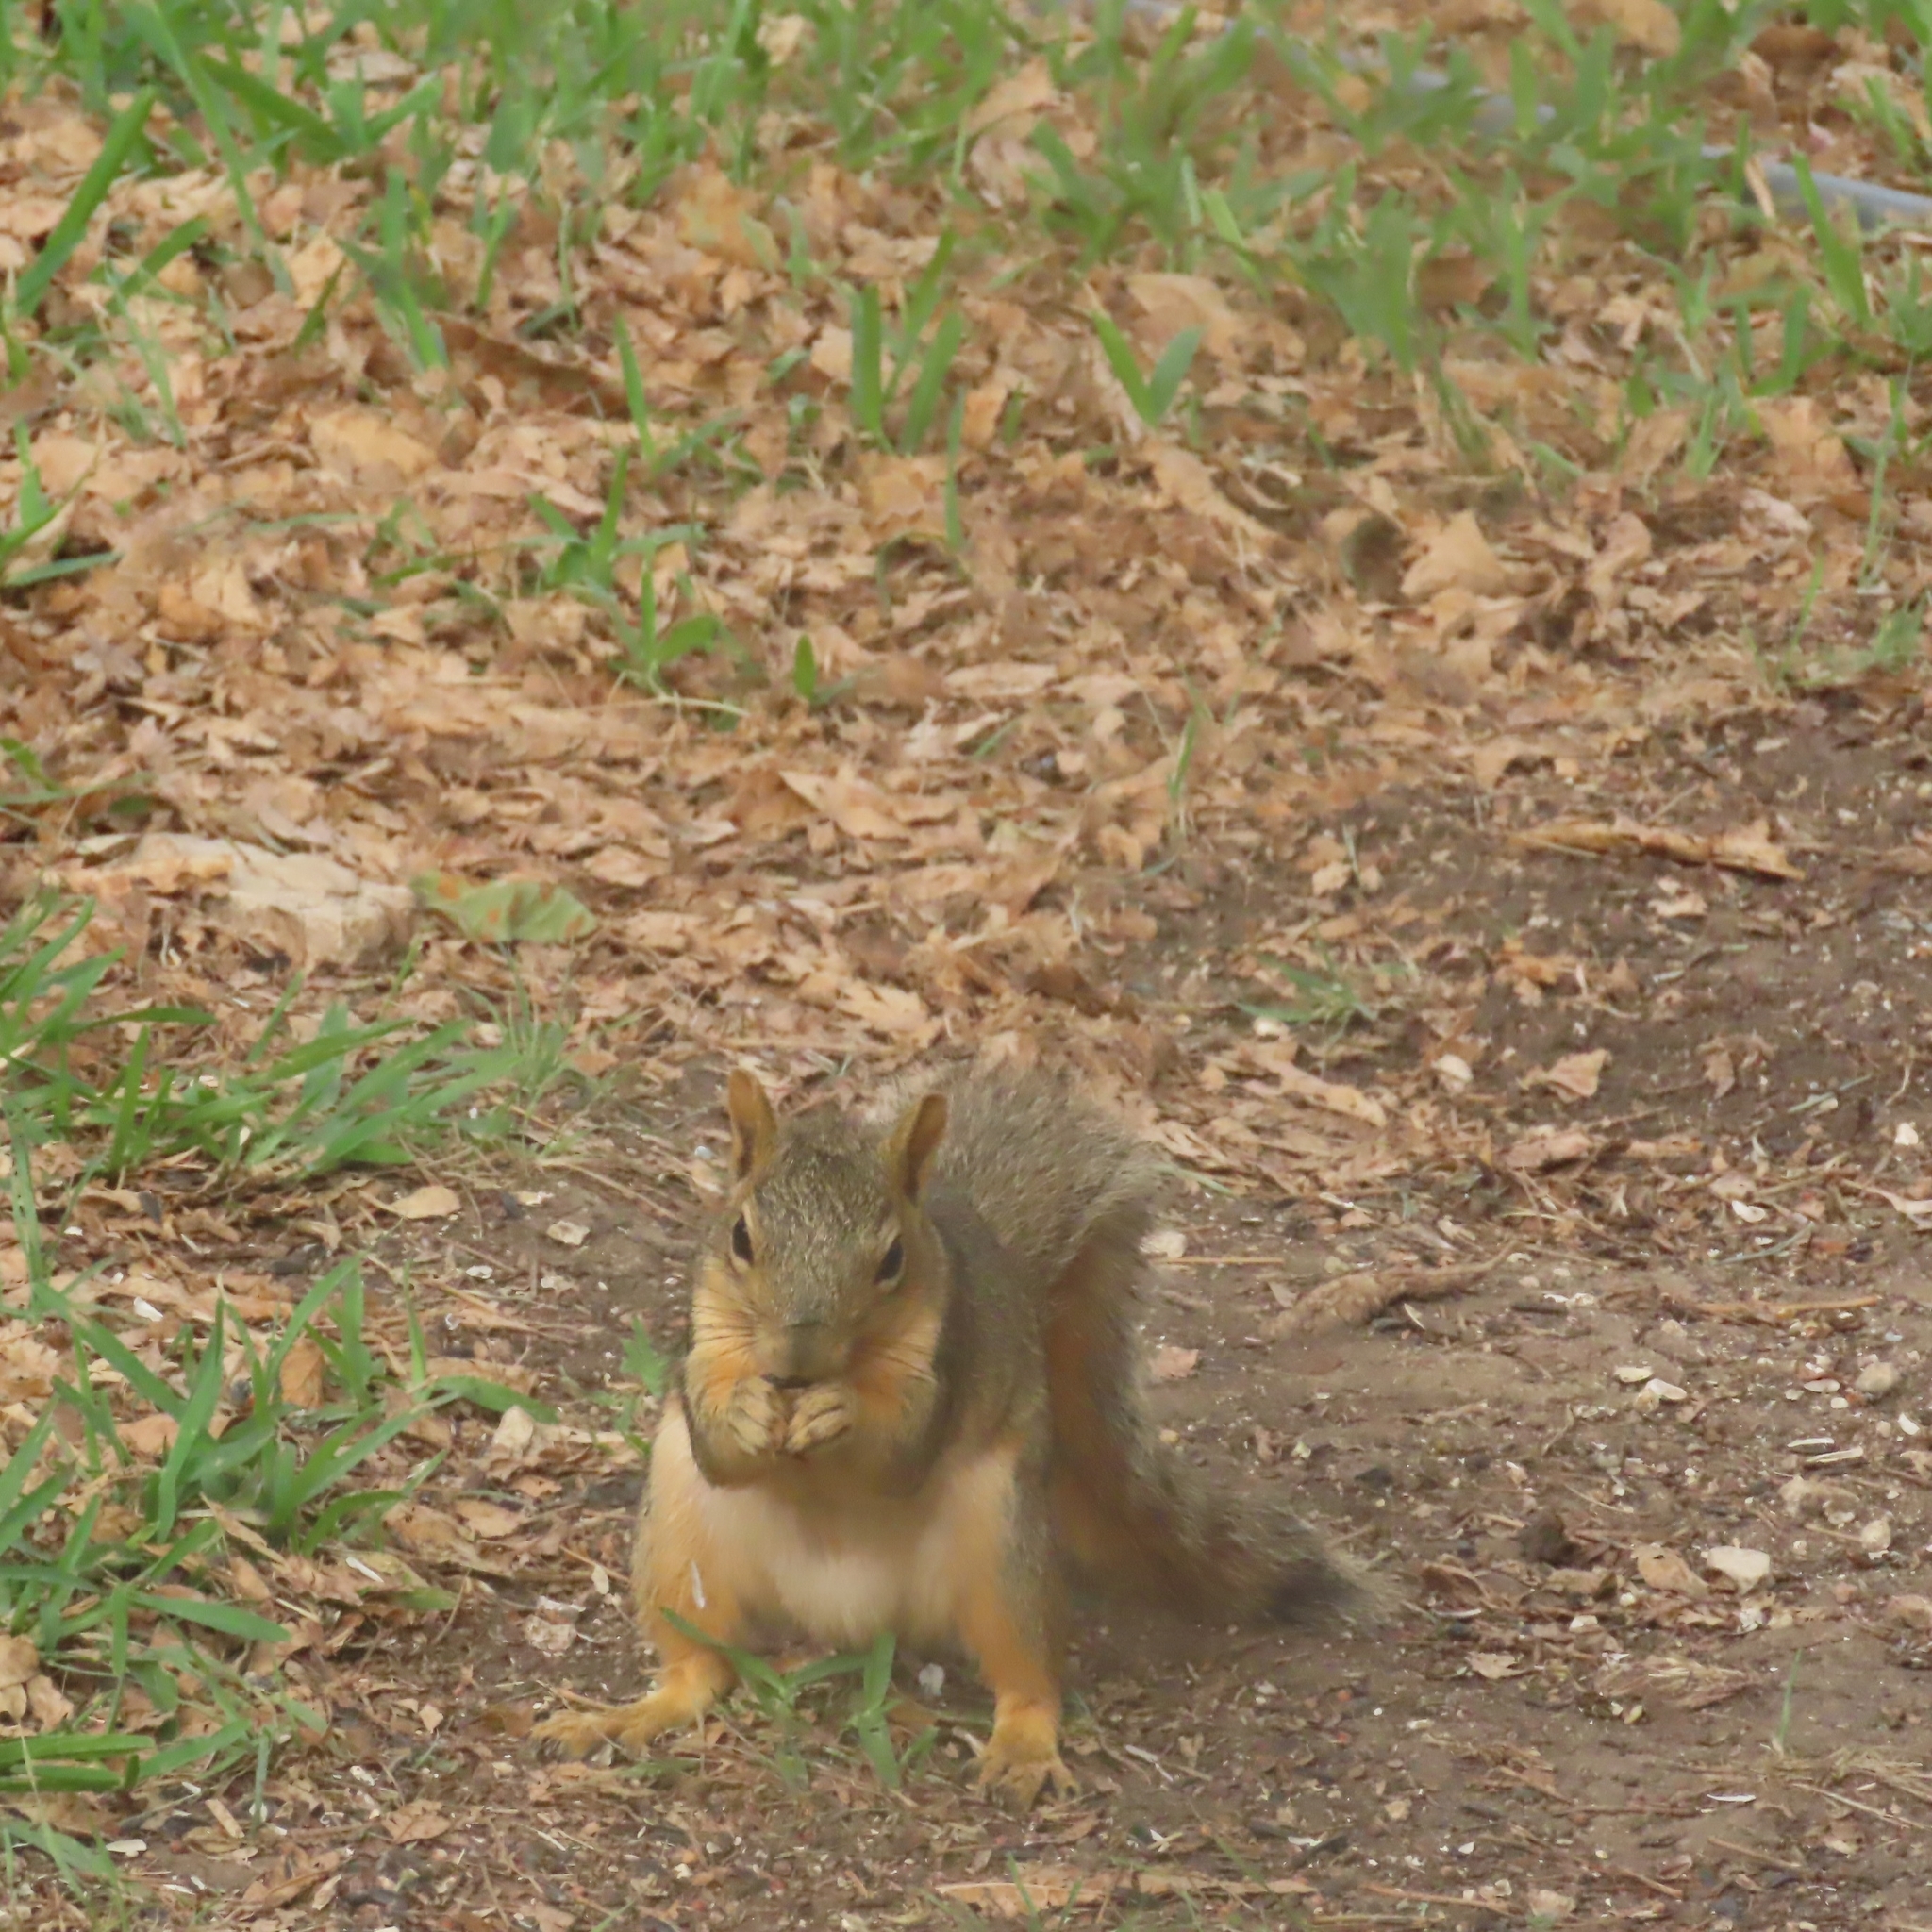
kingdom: Animalia
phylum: Chordata
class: Mammalia
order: Rodentia
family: Sciuridae
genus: Sciurus
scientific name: Sciurus niger
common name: Fox squirrel
